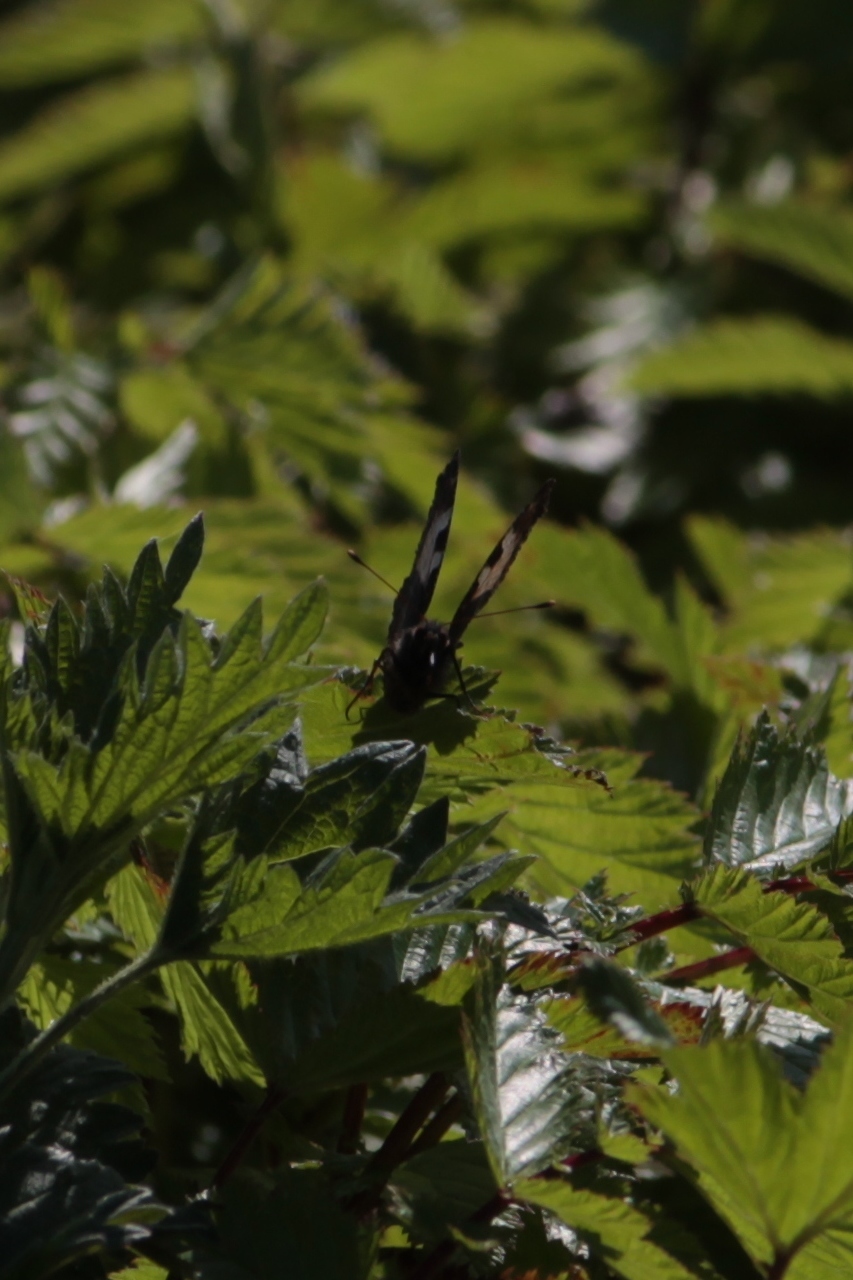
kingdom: Animalia
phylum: Arthropoda
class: Insecta
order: Lepidoptera
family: Nymphalidae
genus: Aglais
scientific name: Aglais urticae
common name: Small tortoiseshell
